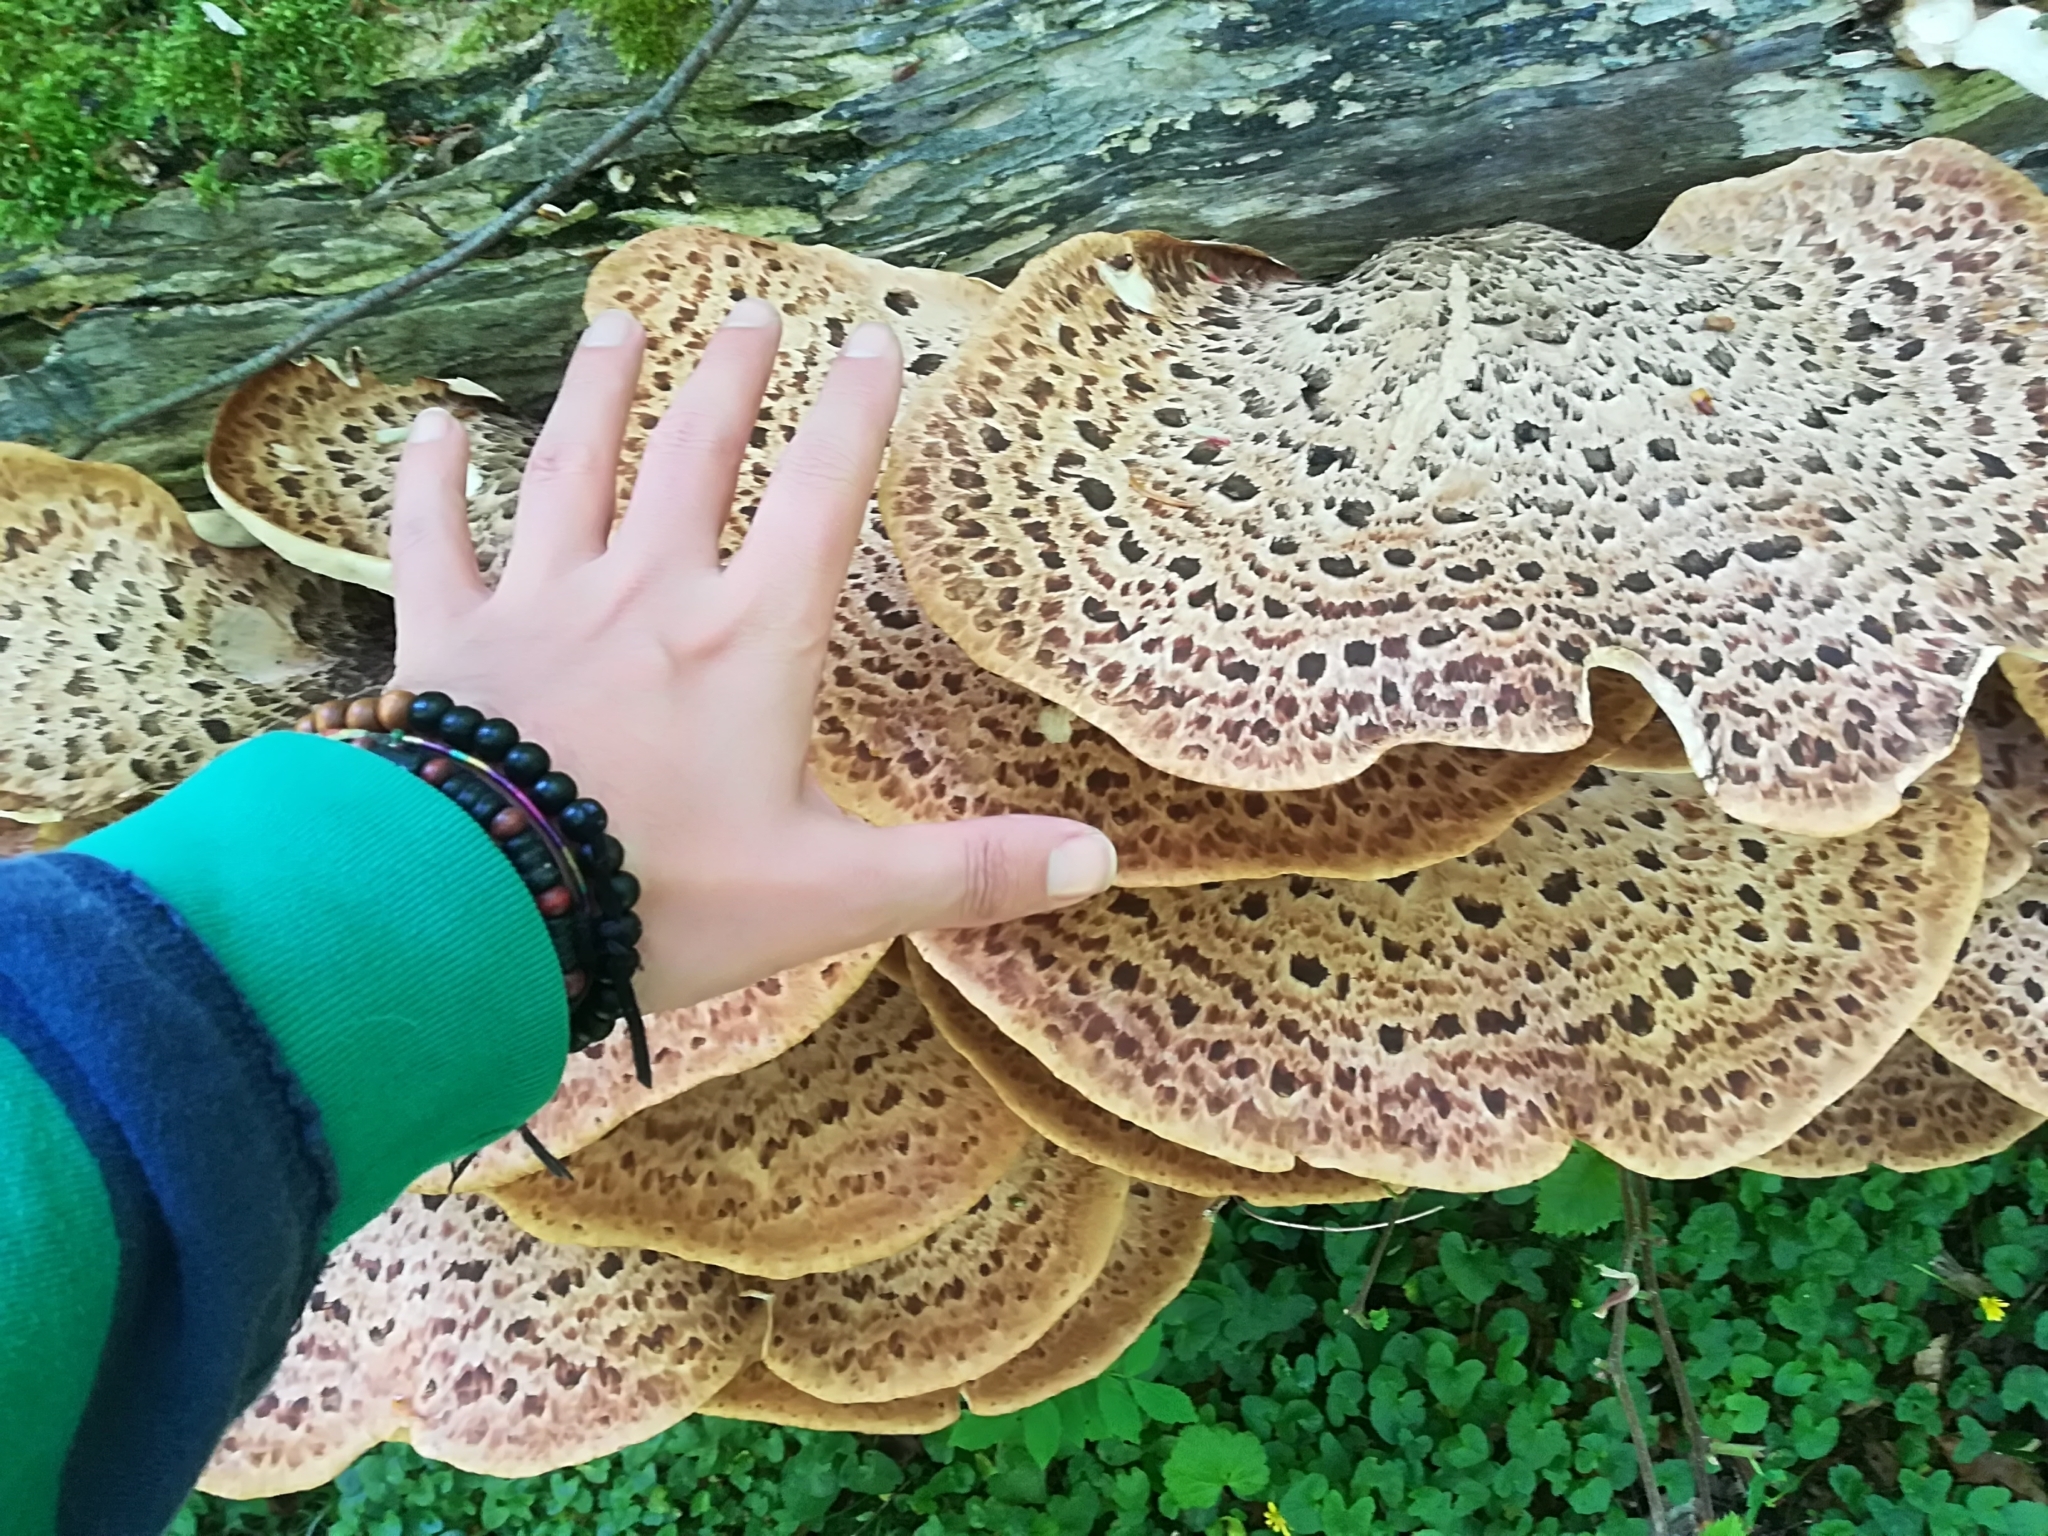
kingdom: Fungi
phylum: Basidiomycota
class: Agaricomycetes
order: Polyporales
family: Polyporaceae
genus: Cerioporus
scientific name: Cerioporus squamosus
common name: Dryad's saddle
